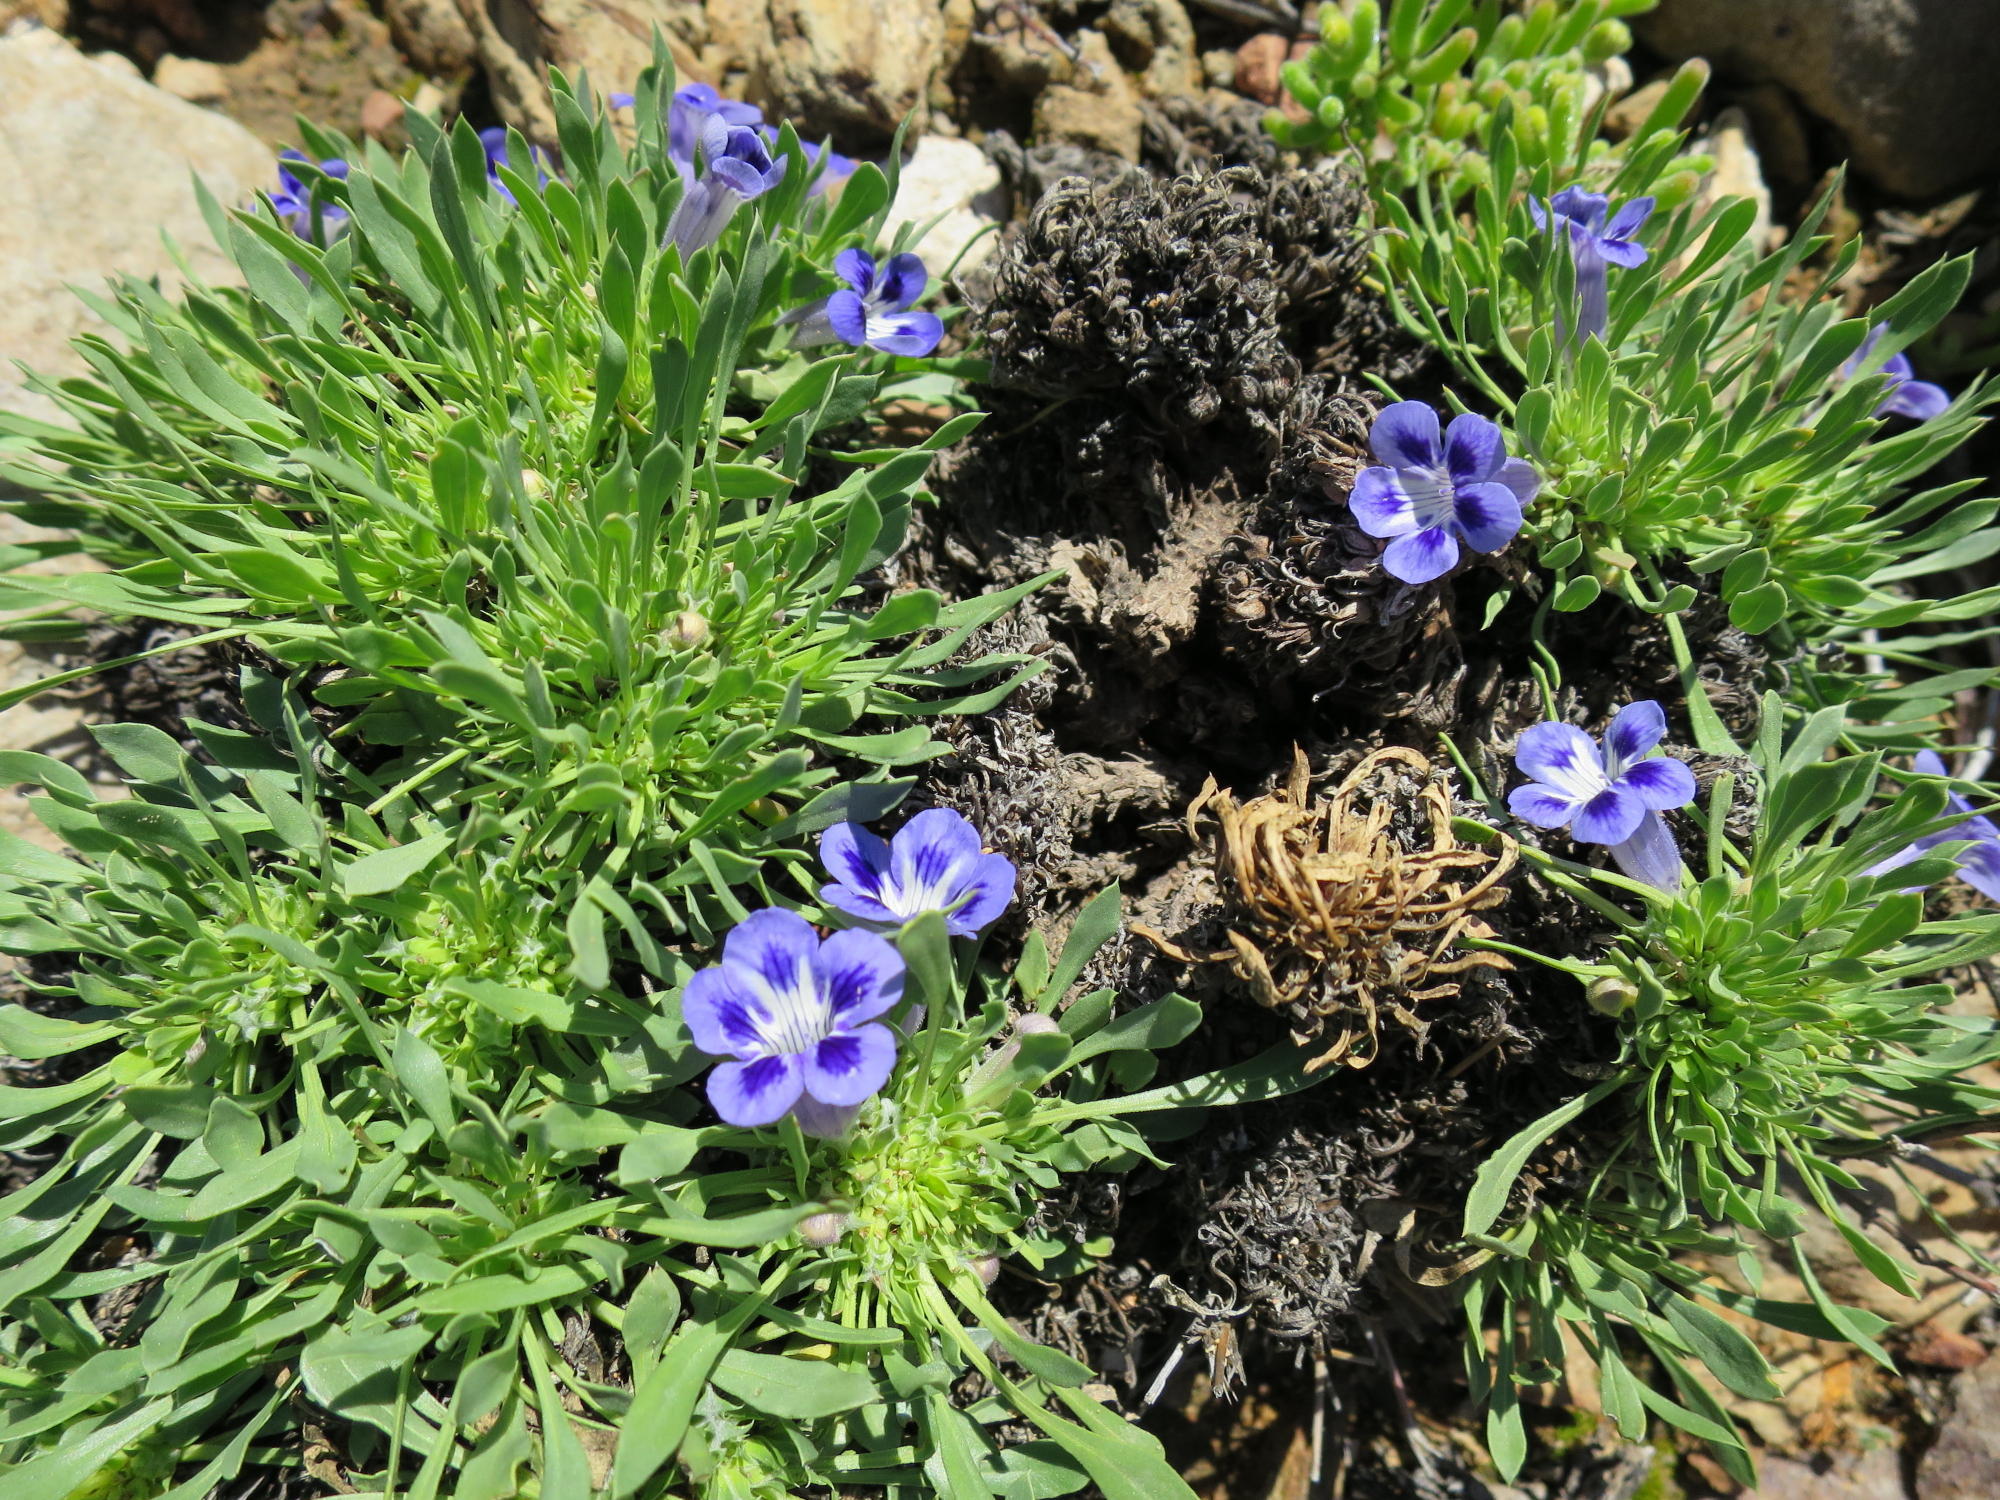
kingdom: Plantae
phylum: Tracheophyta
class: Magnoliopsida
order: Lamiales
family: Scrophulariaceae
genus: Aptosimum
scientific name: Aptosimum indivisum
